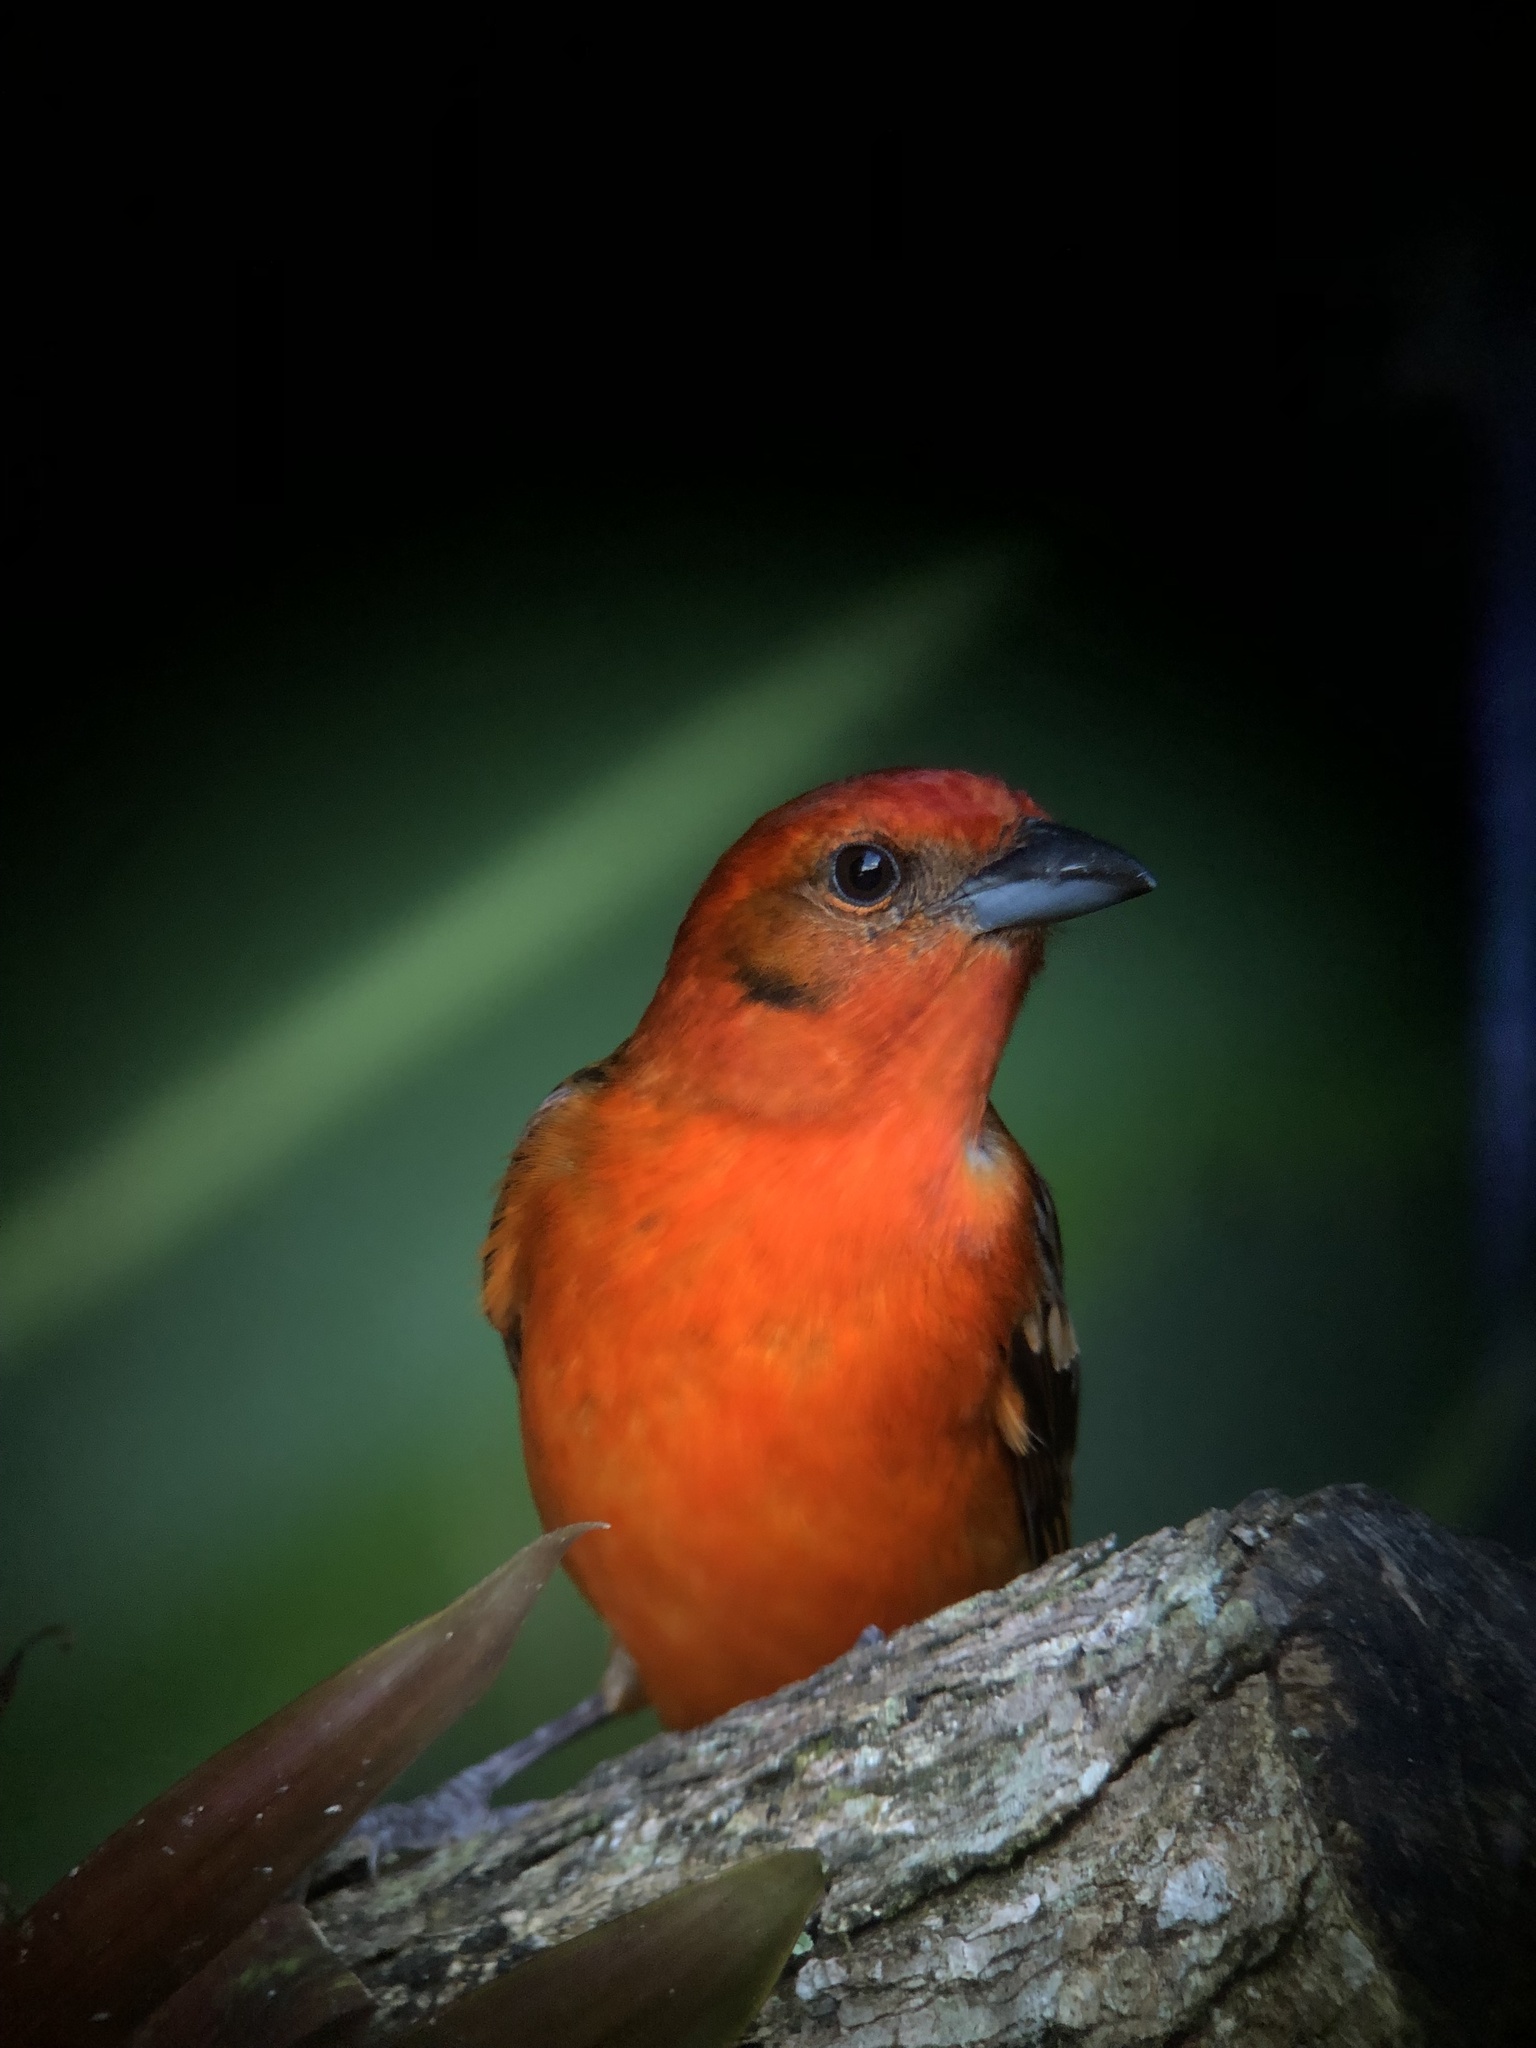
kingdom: Animalia
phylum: Chordata
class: Aves
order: Passeriformes
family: Cardinalidae
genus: Piranga
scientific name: Piranga bidentata
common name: Flame-colored tanager
